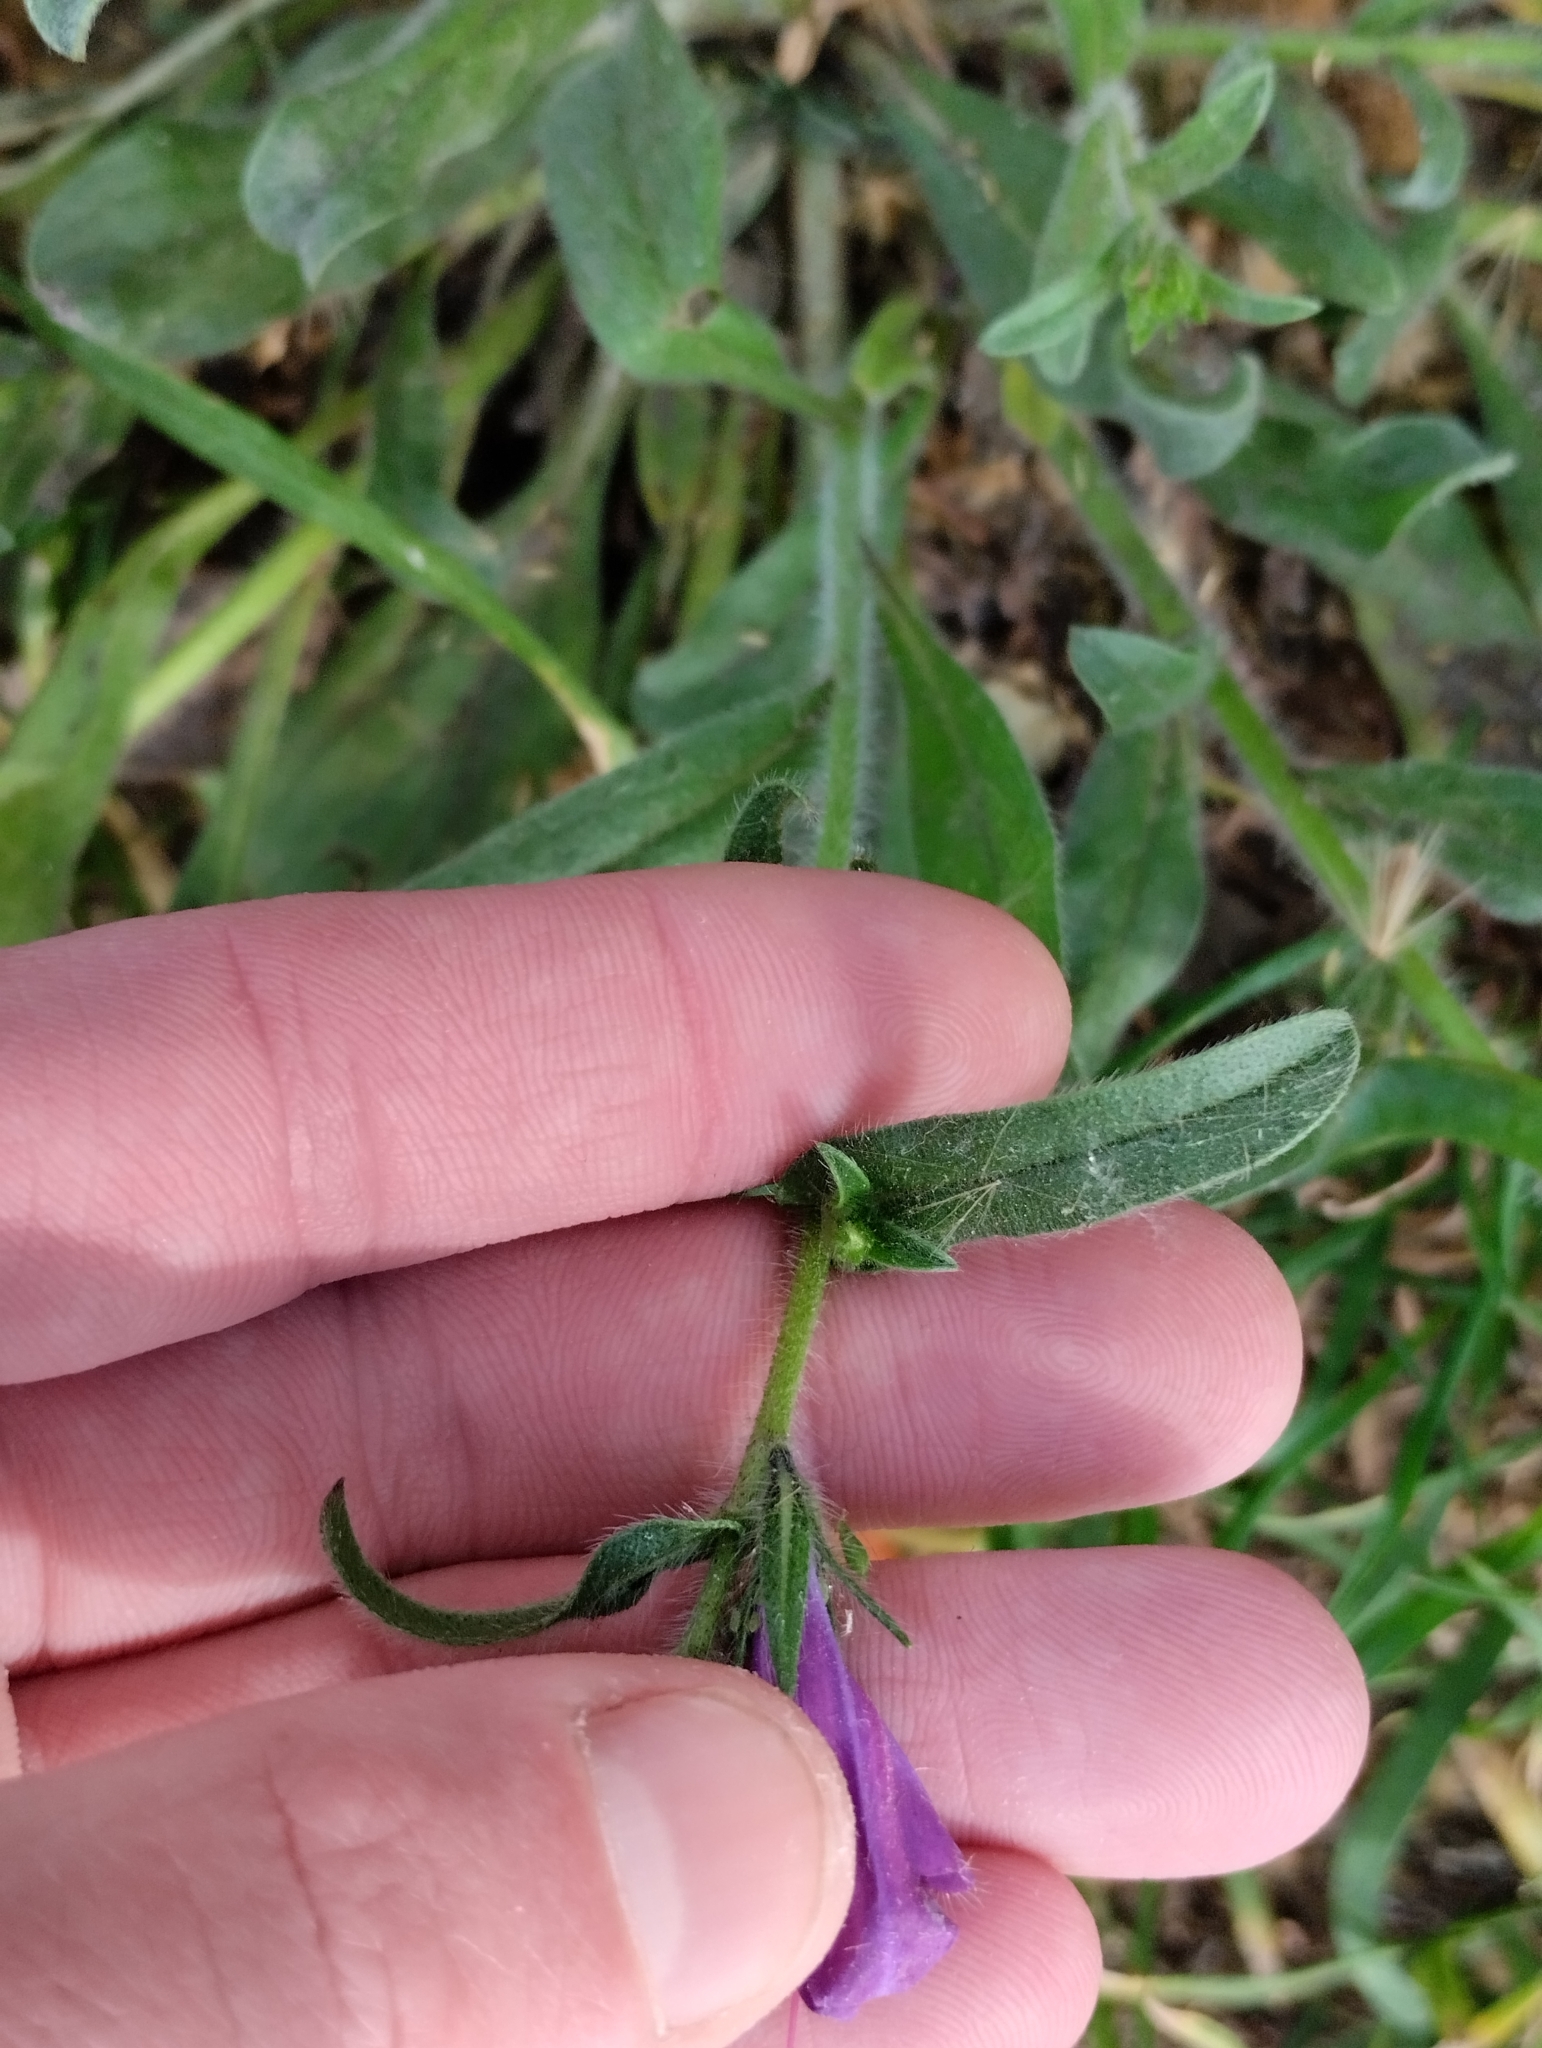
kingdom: Plantae
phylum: Tracheophyta
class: Magnoliopsida
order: Boraginales
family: Boraginaceae
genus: Echium
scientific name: Echium plantagineum
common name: Purple viper's-bugloss
